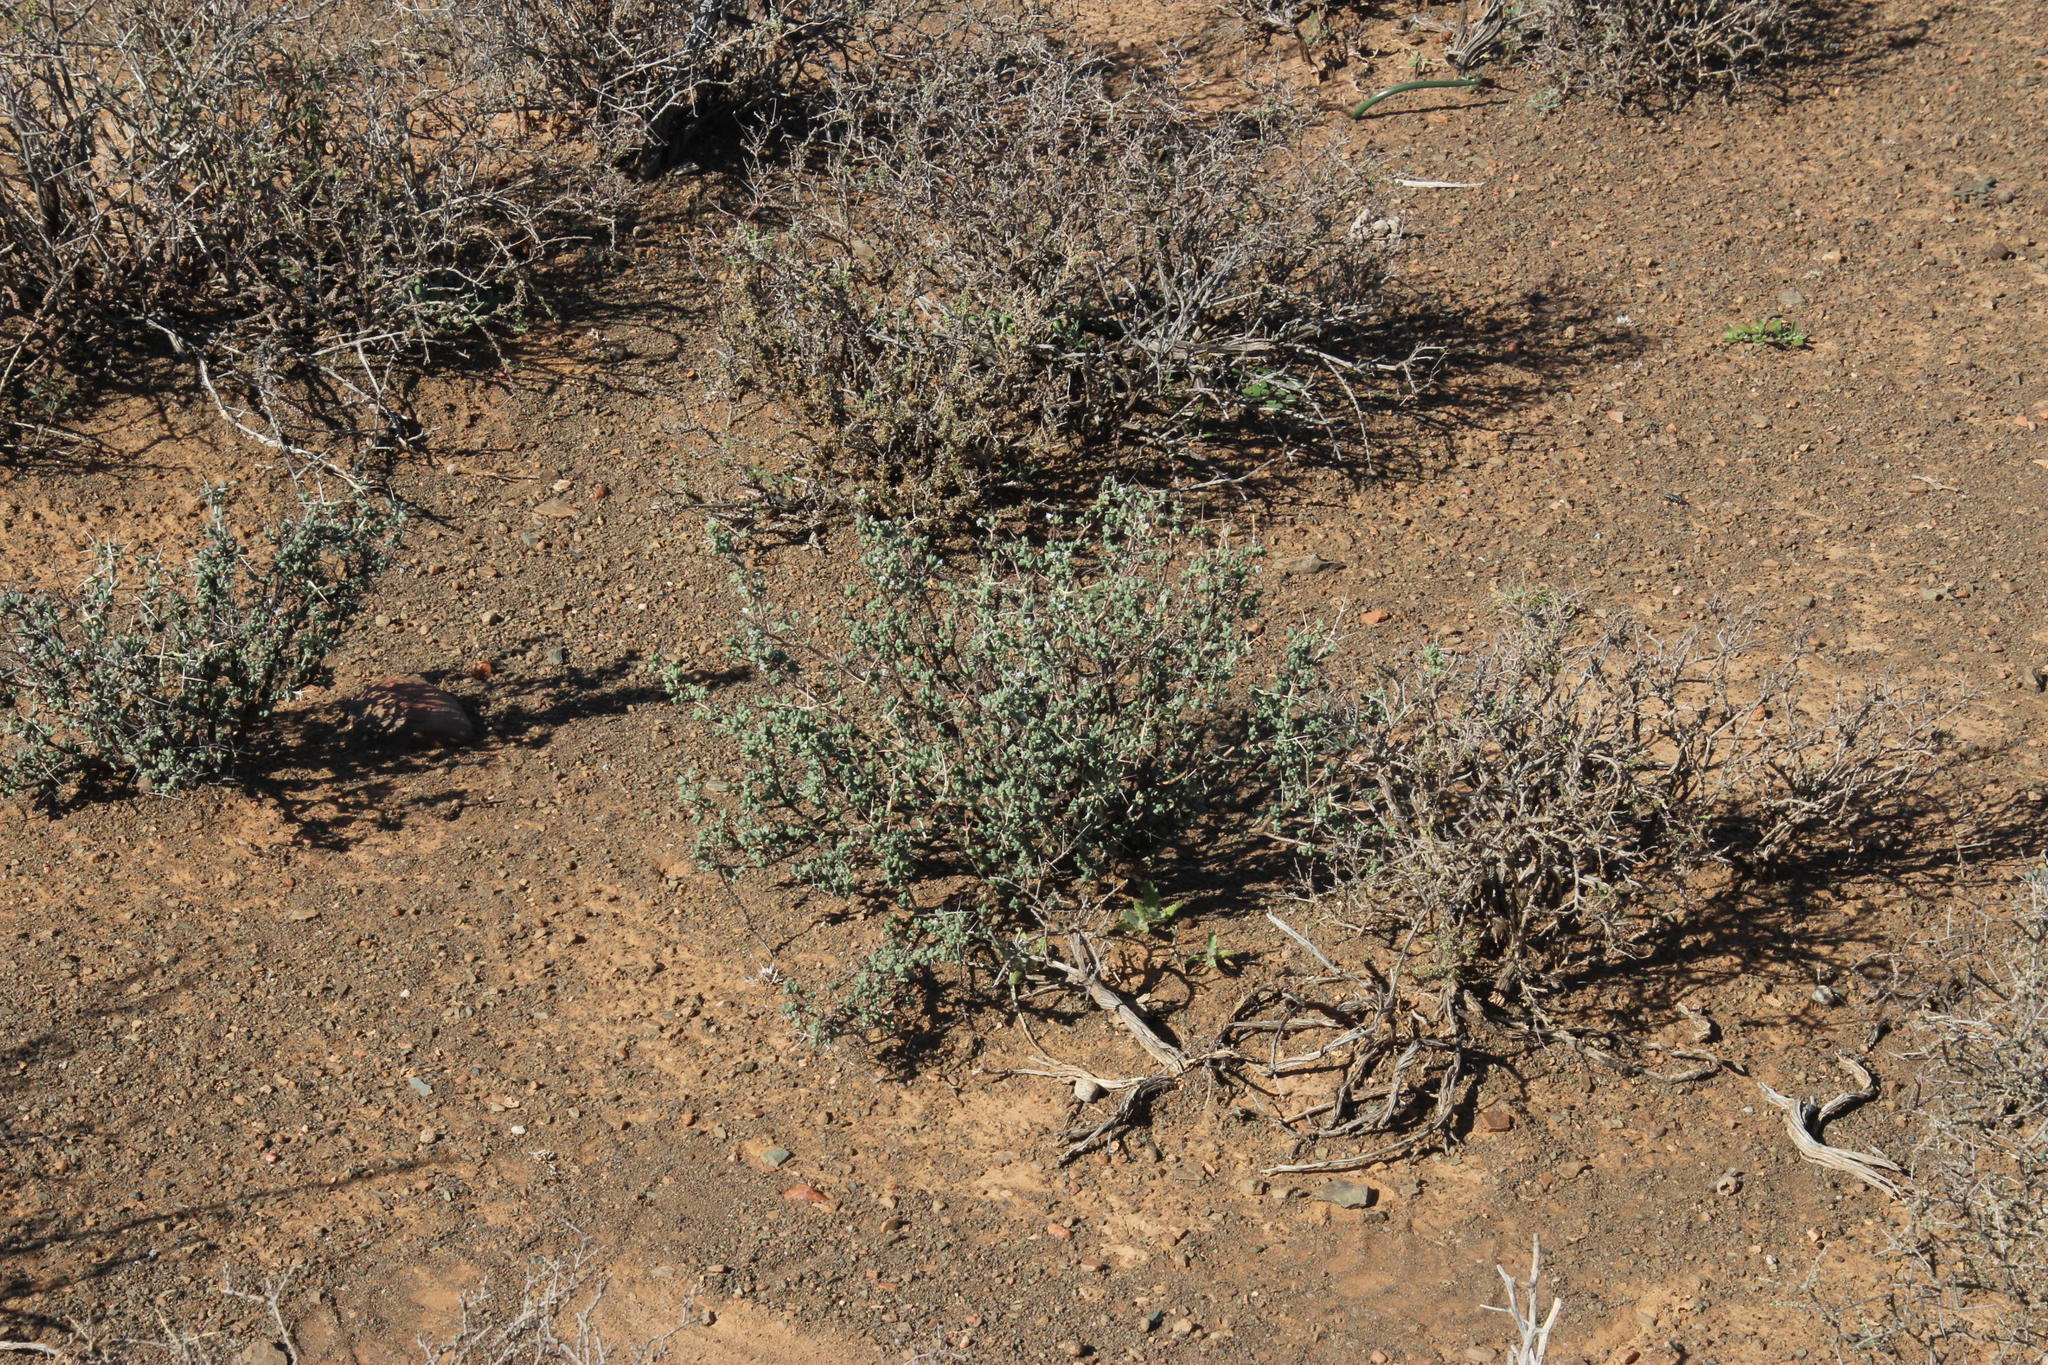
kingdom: Plantae
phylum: Tracheophyta
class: Magnoliopsida
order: Caryophyllales
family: Aizoaceae
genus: Ruschia
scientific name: Ruschia cradockensis
